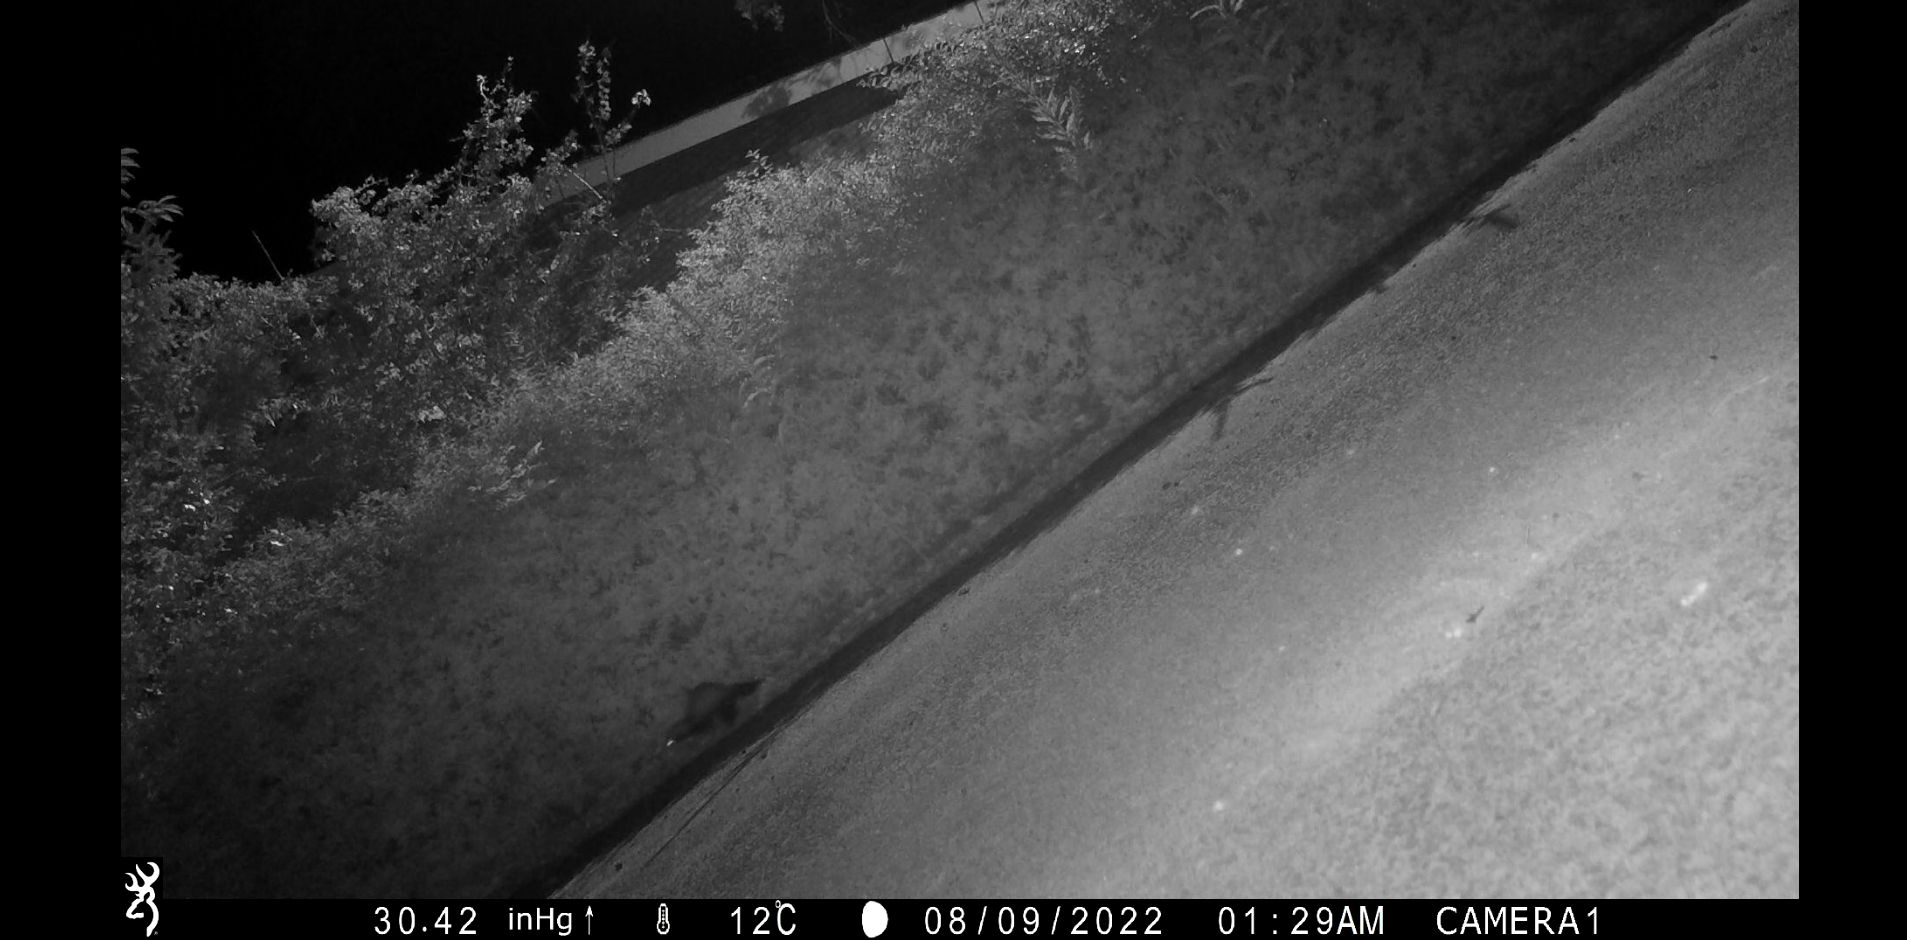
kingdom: Animalia
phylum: Chordata
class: Mammalia
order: Carnivora
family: Mustelidae
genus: Mustela
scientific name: Mustela putorius
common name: European polecat
